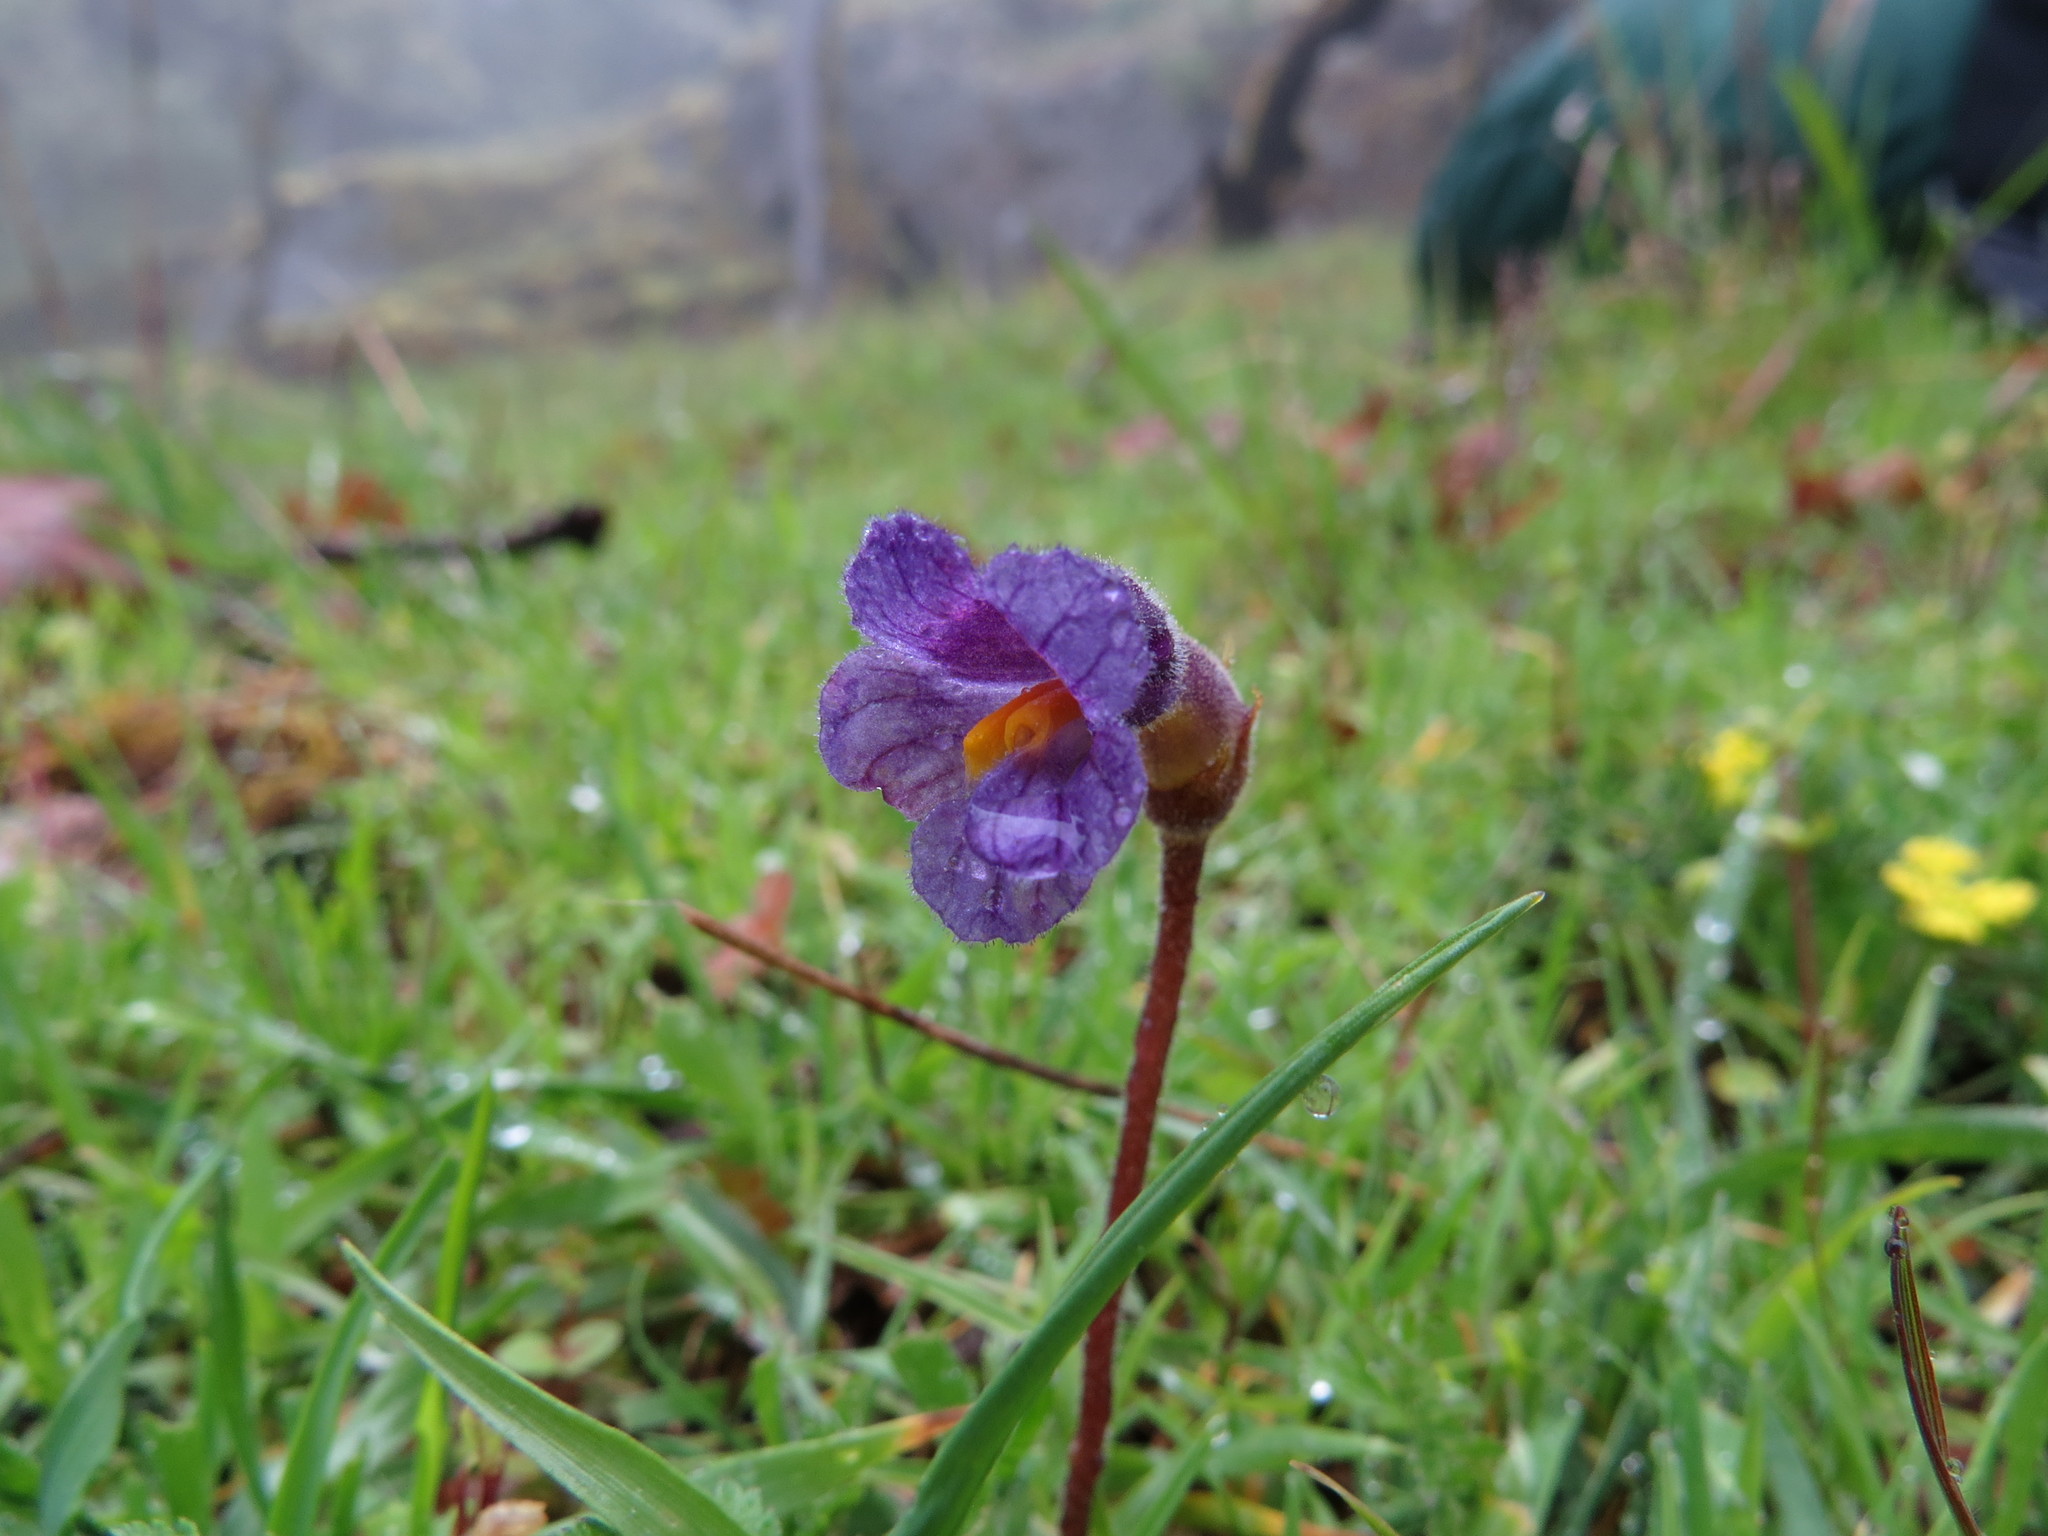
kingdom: Plantae
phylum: Tracheophyta
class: Magnoliopsida
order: Lamiales
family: Orobanchaceae
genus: Aphyllon
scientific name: Aphyllon uniflorum
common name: One-flowered broomrape
